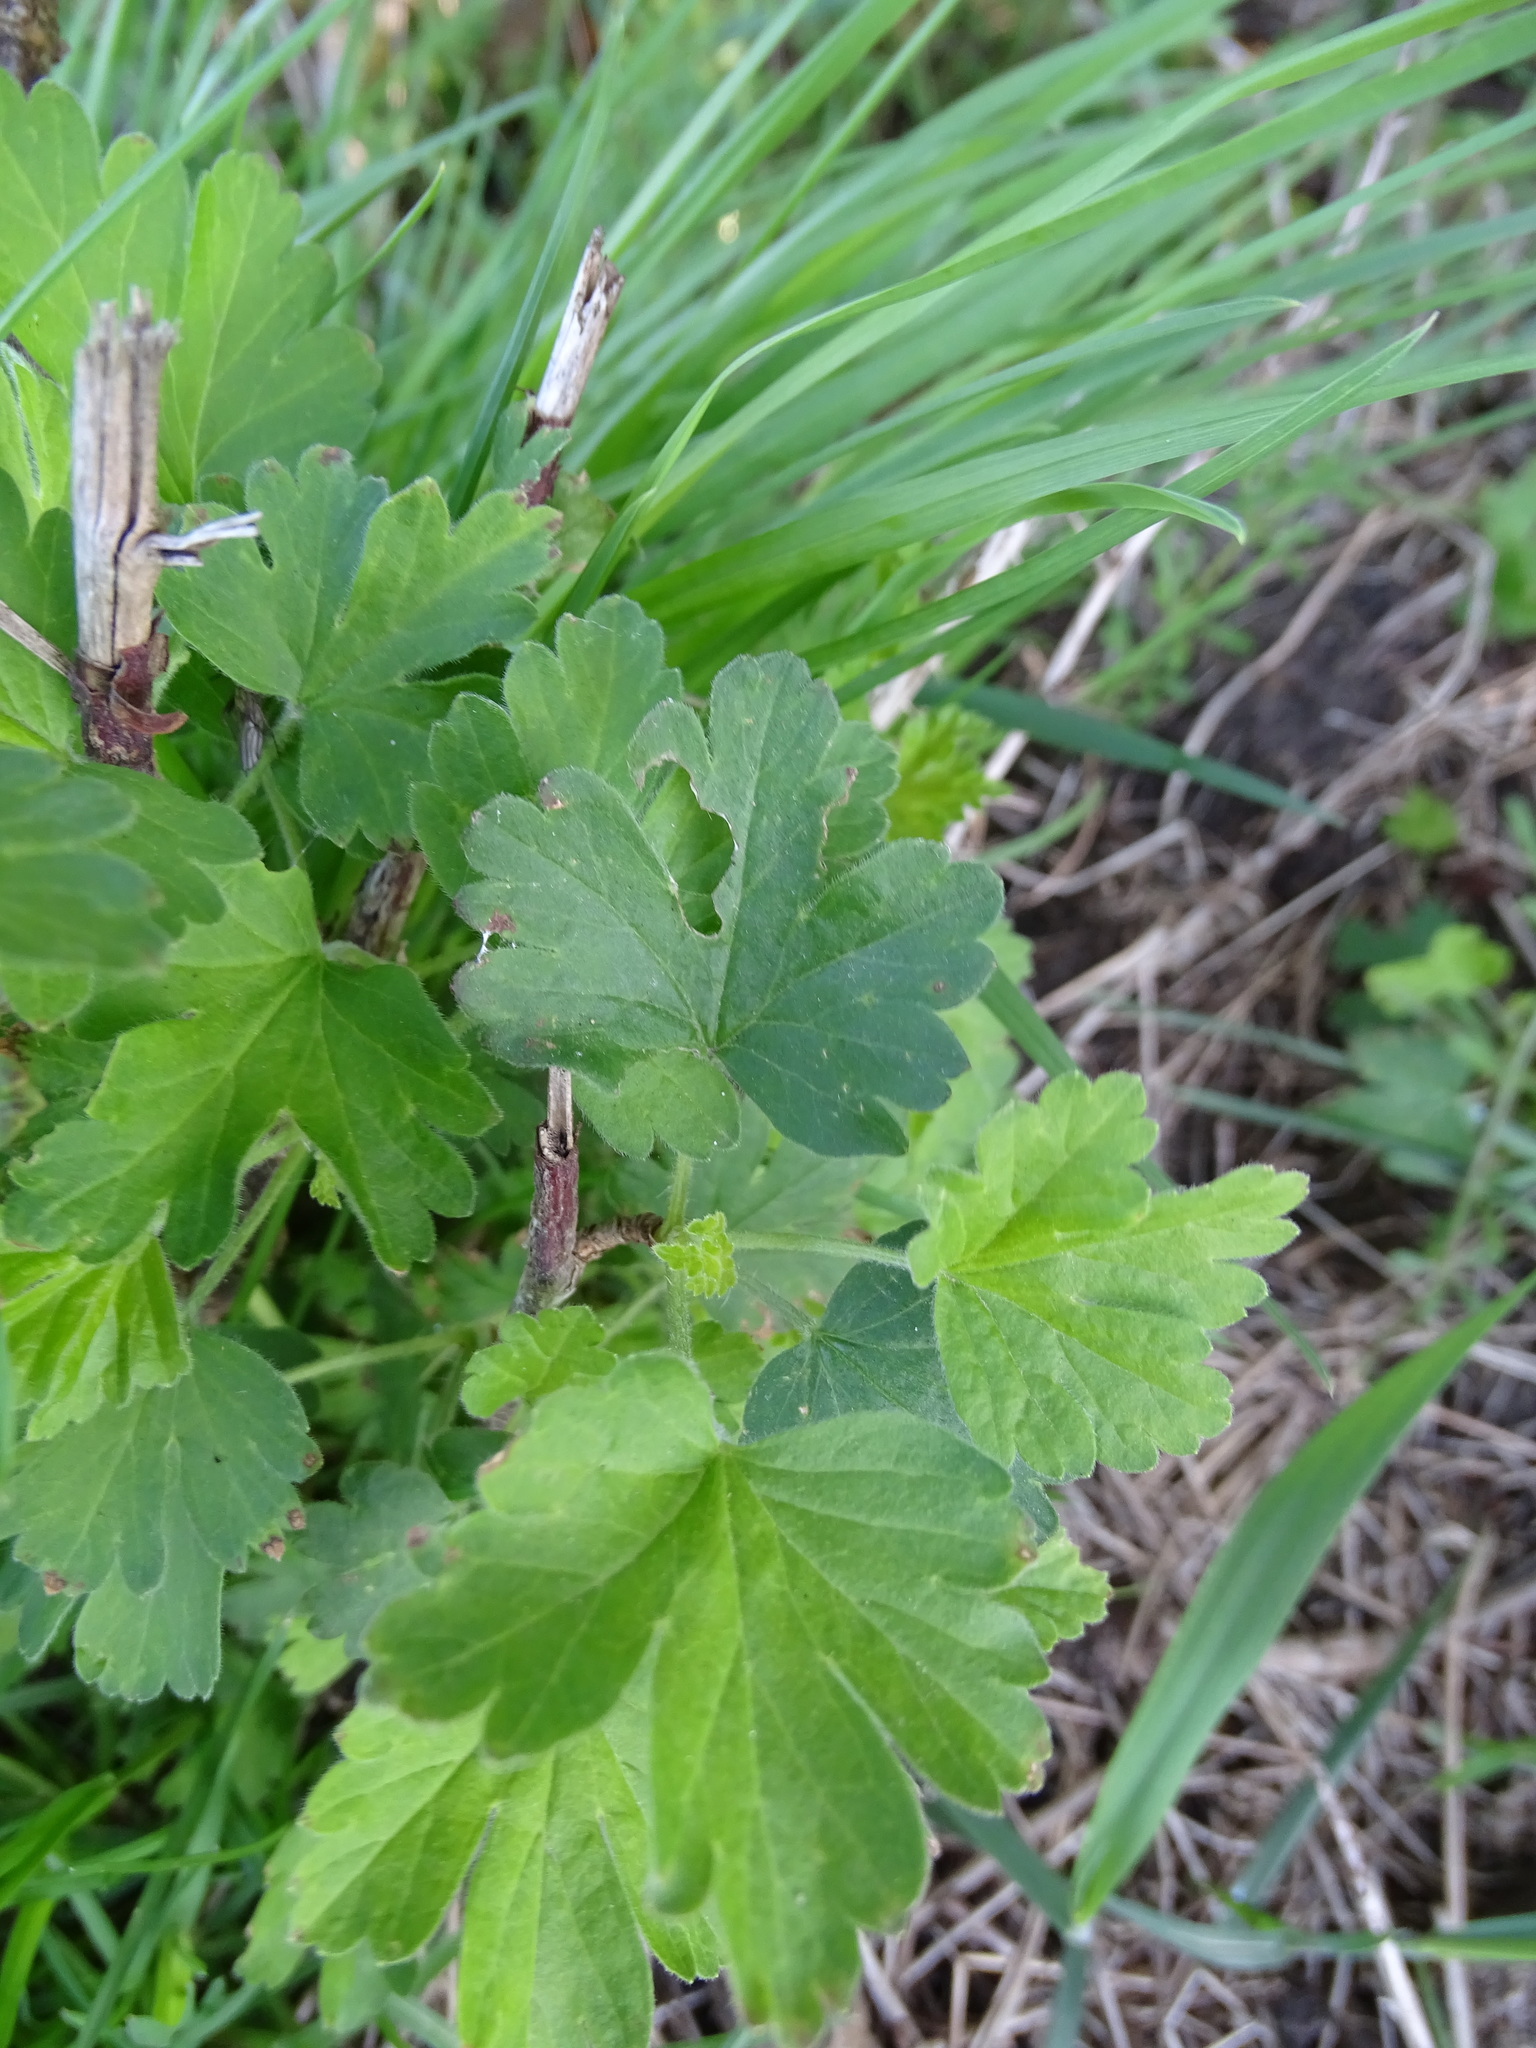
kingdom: Plantae
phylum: Tracheophyta
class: Magnoliopsida
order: Saxifragales
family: Grossulariaceae
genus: Ribes
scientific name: Ribes uva-crispa
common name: Gooseberry
